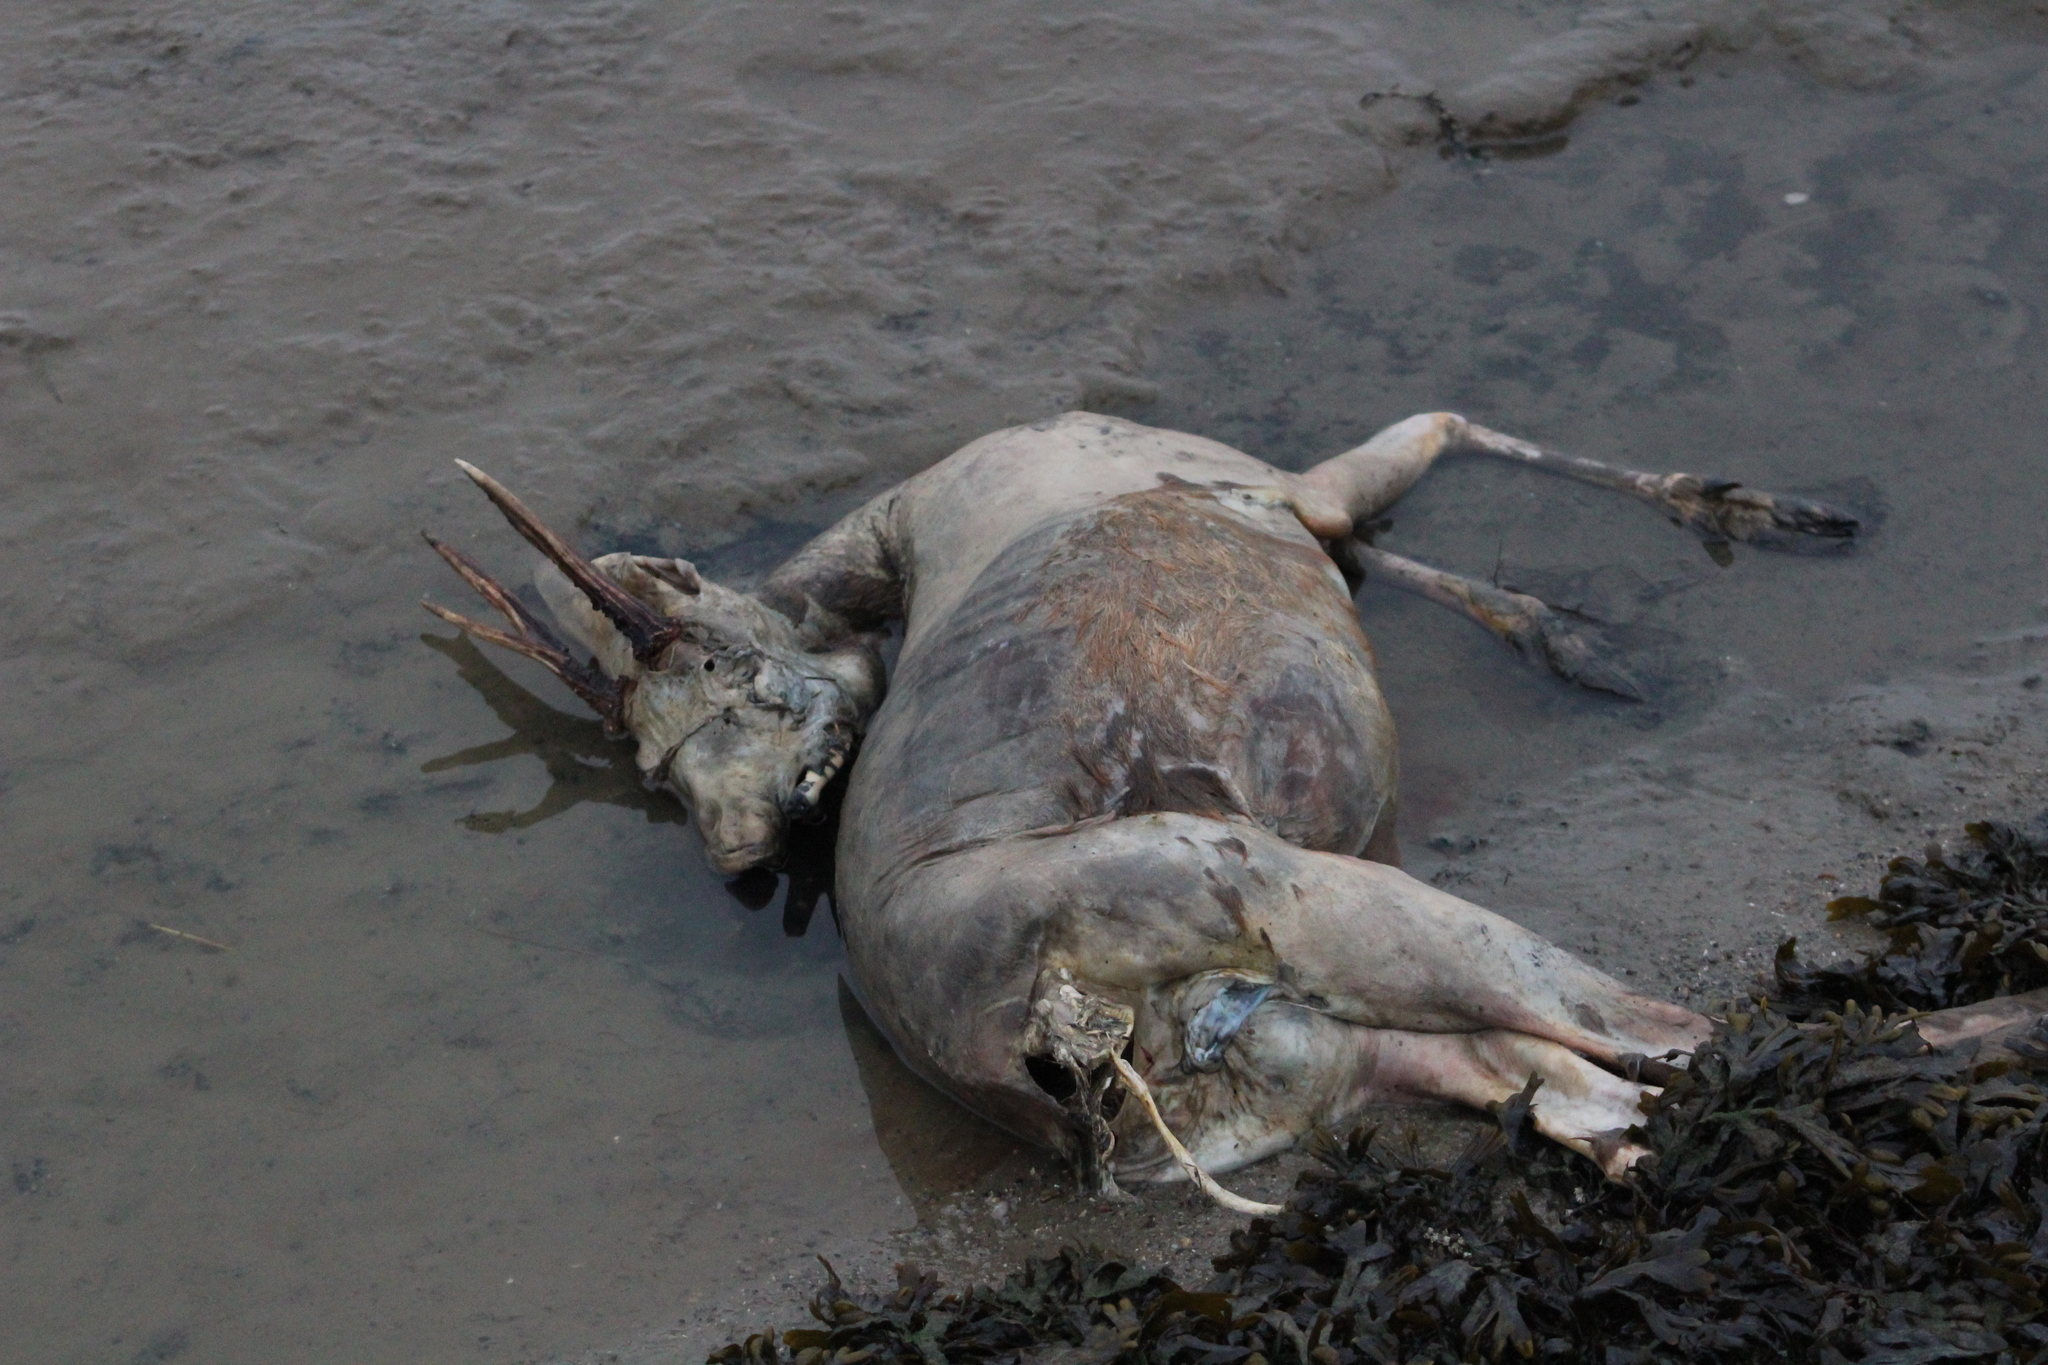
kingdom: Animalia
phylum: Chordata
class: Mammalia
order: Artiodactyla
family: Cervidae
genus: Capreolus
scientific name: Capreolus capreolus
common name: Western roe deer
